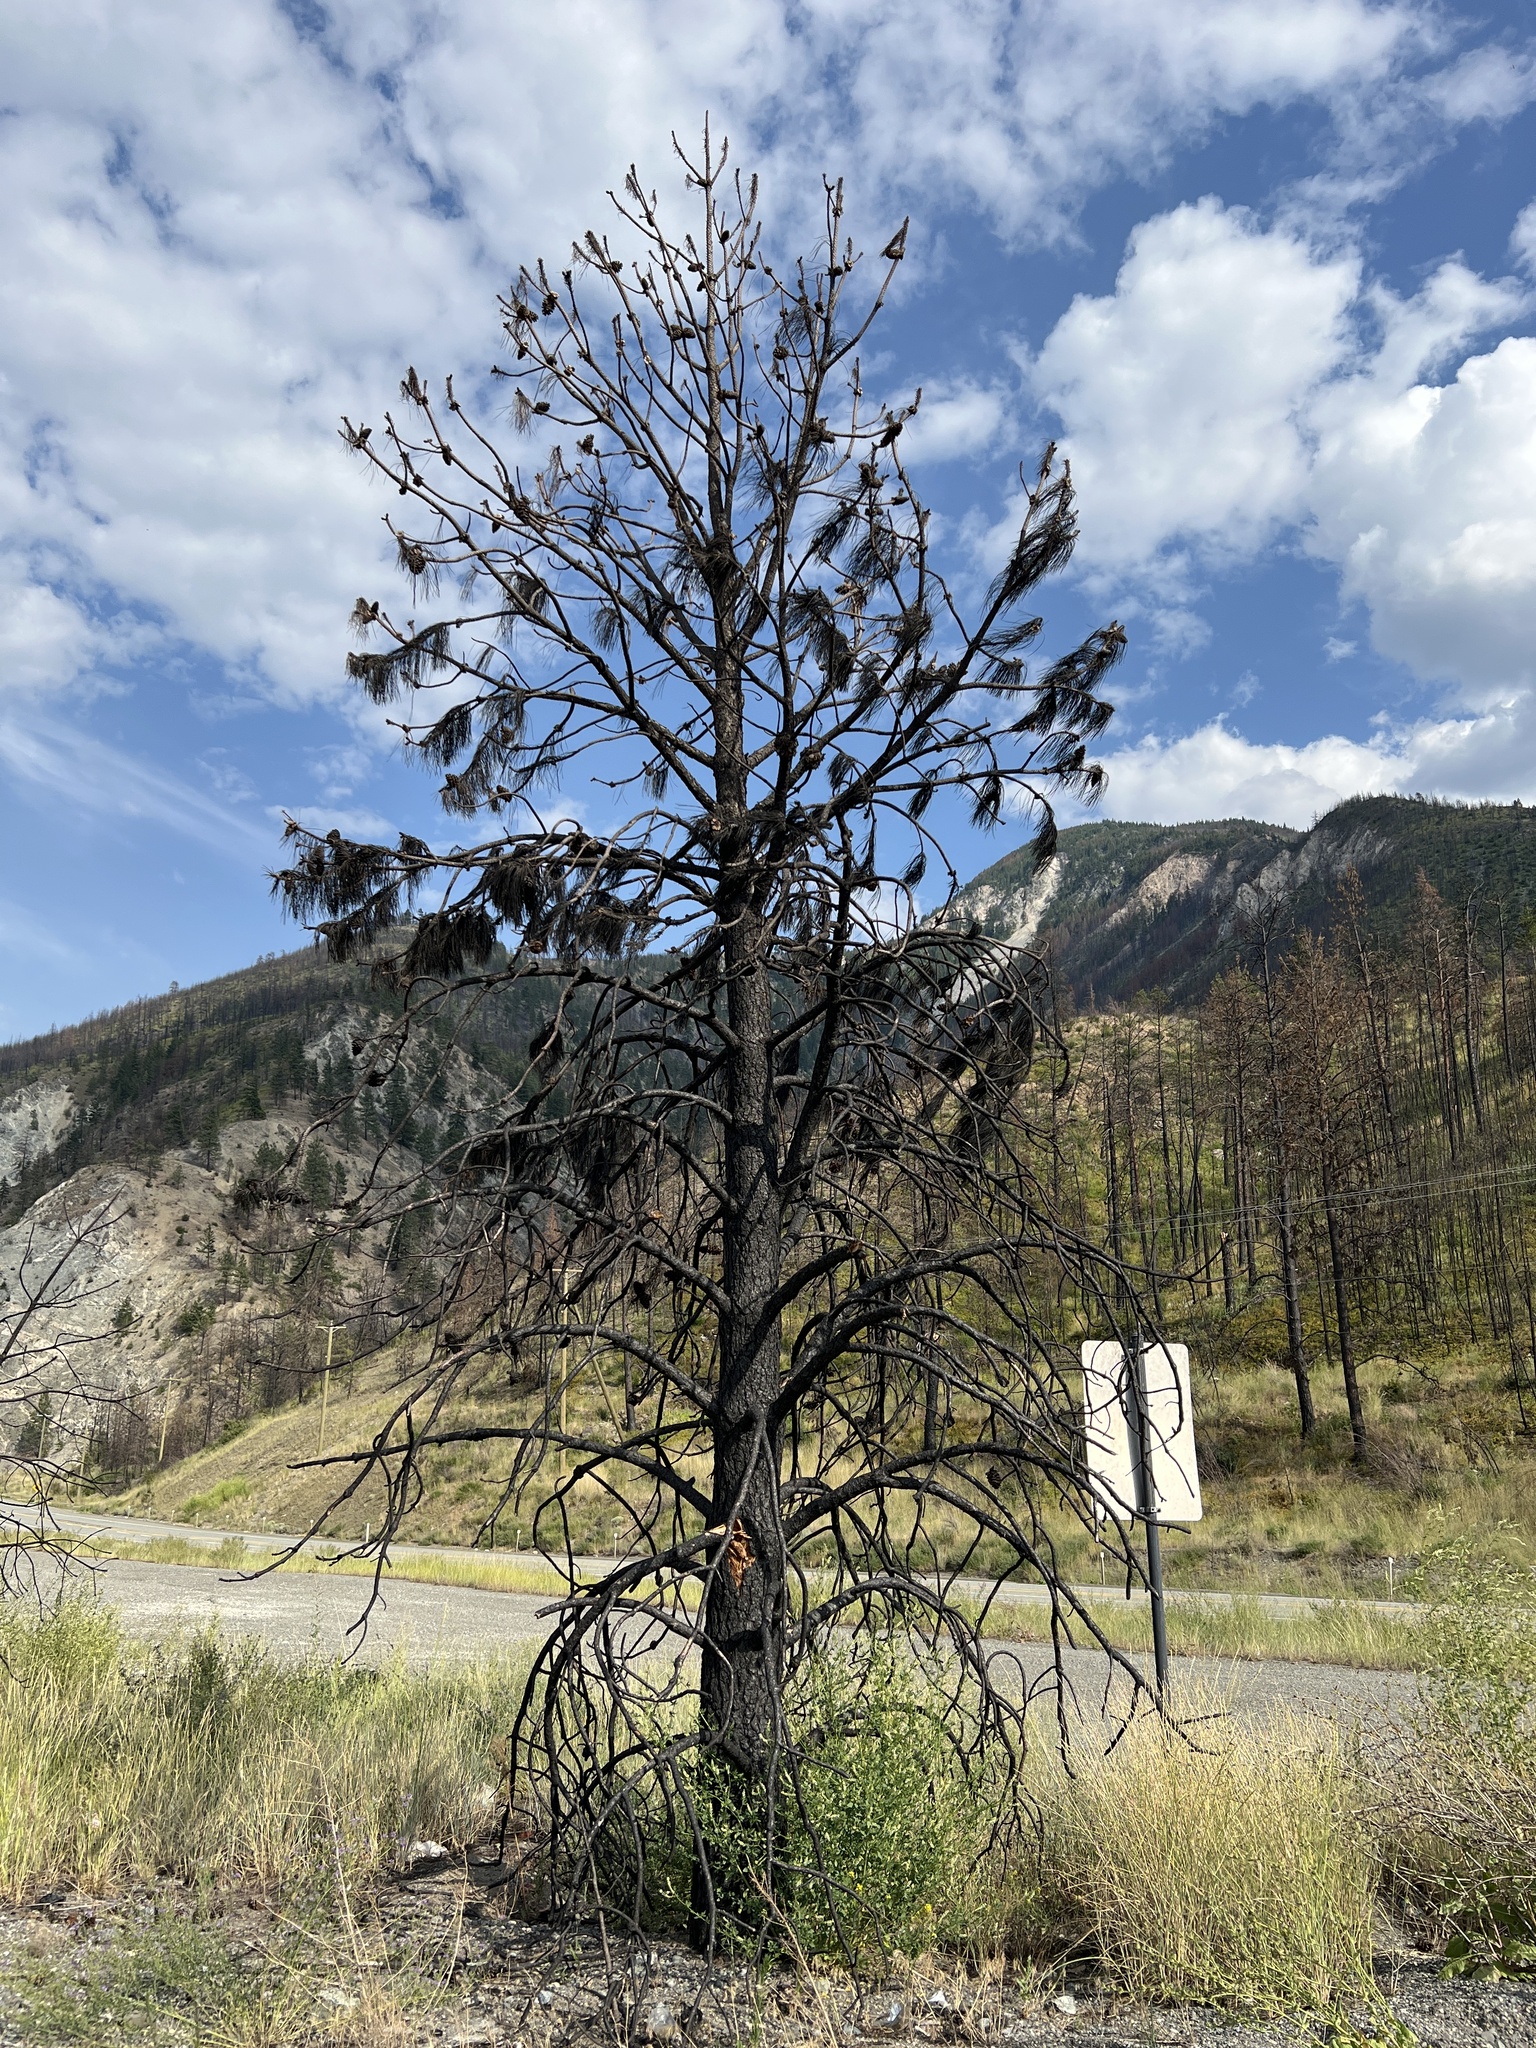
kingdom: Plantae
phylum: Tracheophyta
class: Pinopsida
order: Pinales
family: Pinaceae
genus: Pinus
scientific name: Pinus ponderosa
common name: Western yellow-pine
